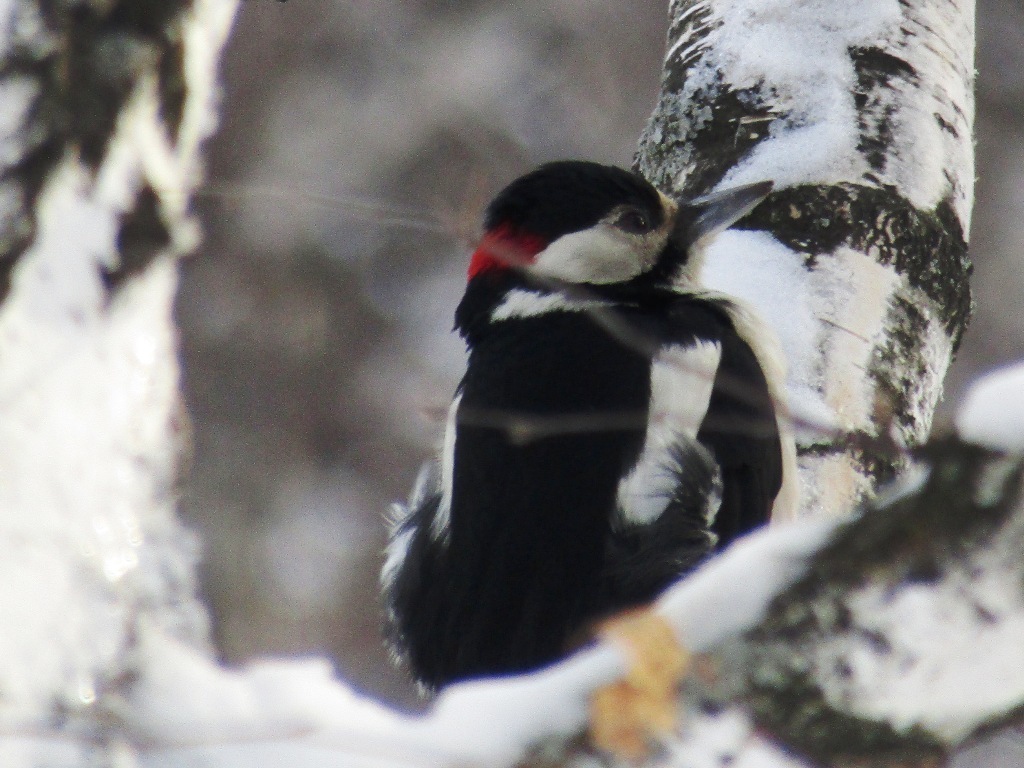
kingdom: Animalia
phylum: Chordata
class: Aves
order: Piciformes
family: Picidae
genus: Dendrocopos
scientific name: Dendrocopos major
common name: Great spotted woodpecker
